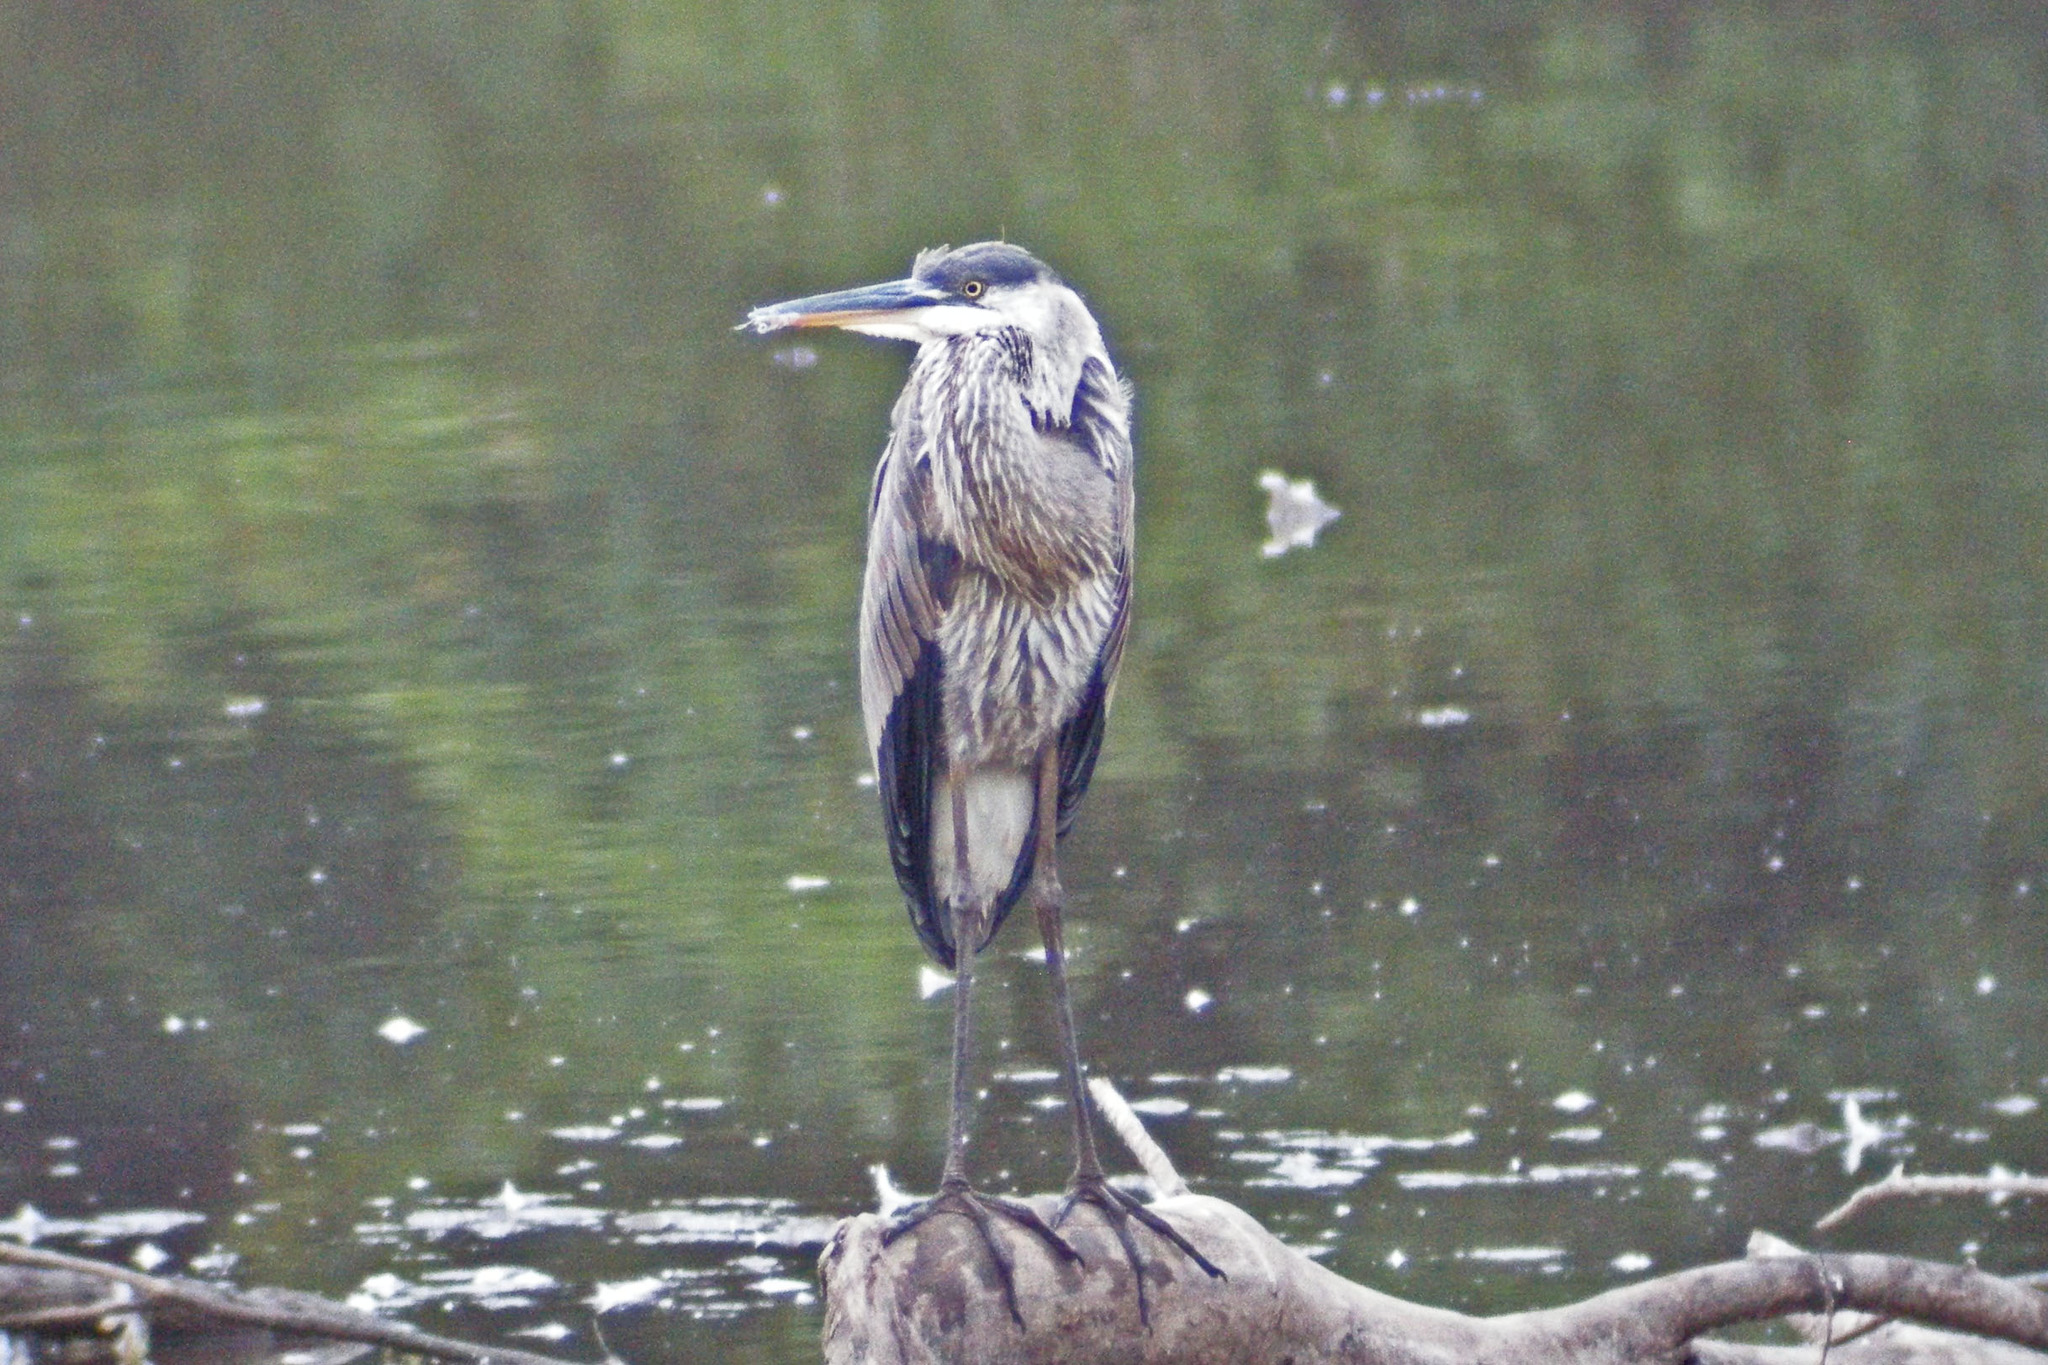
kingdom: Animalia
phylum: Chordata
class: Aves
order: Pelecaniformes
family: Ardeidae
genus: Ardea
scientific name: Ardea herodias
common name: Great blue heron
